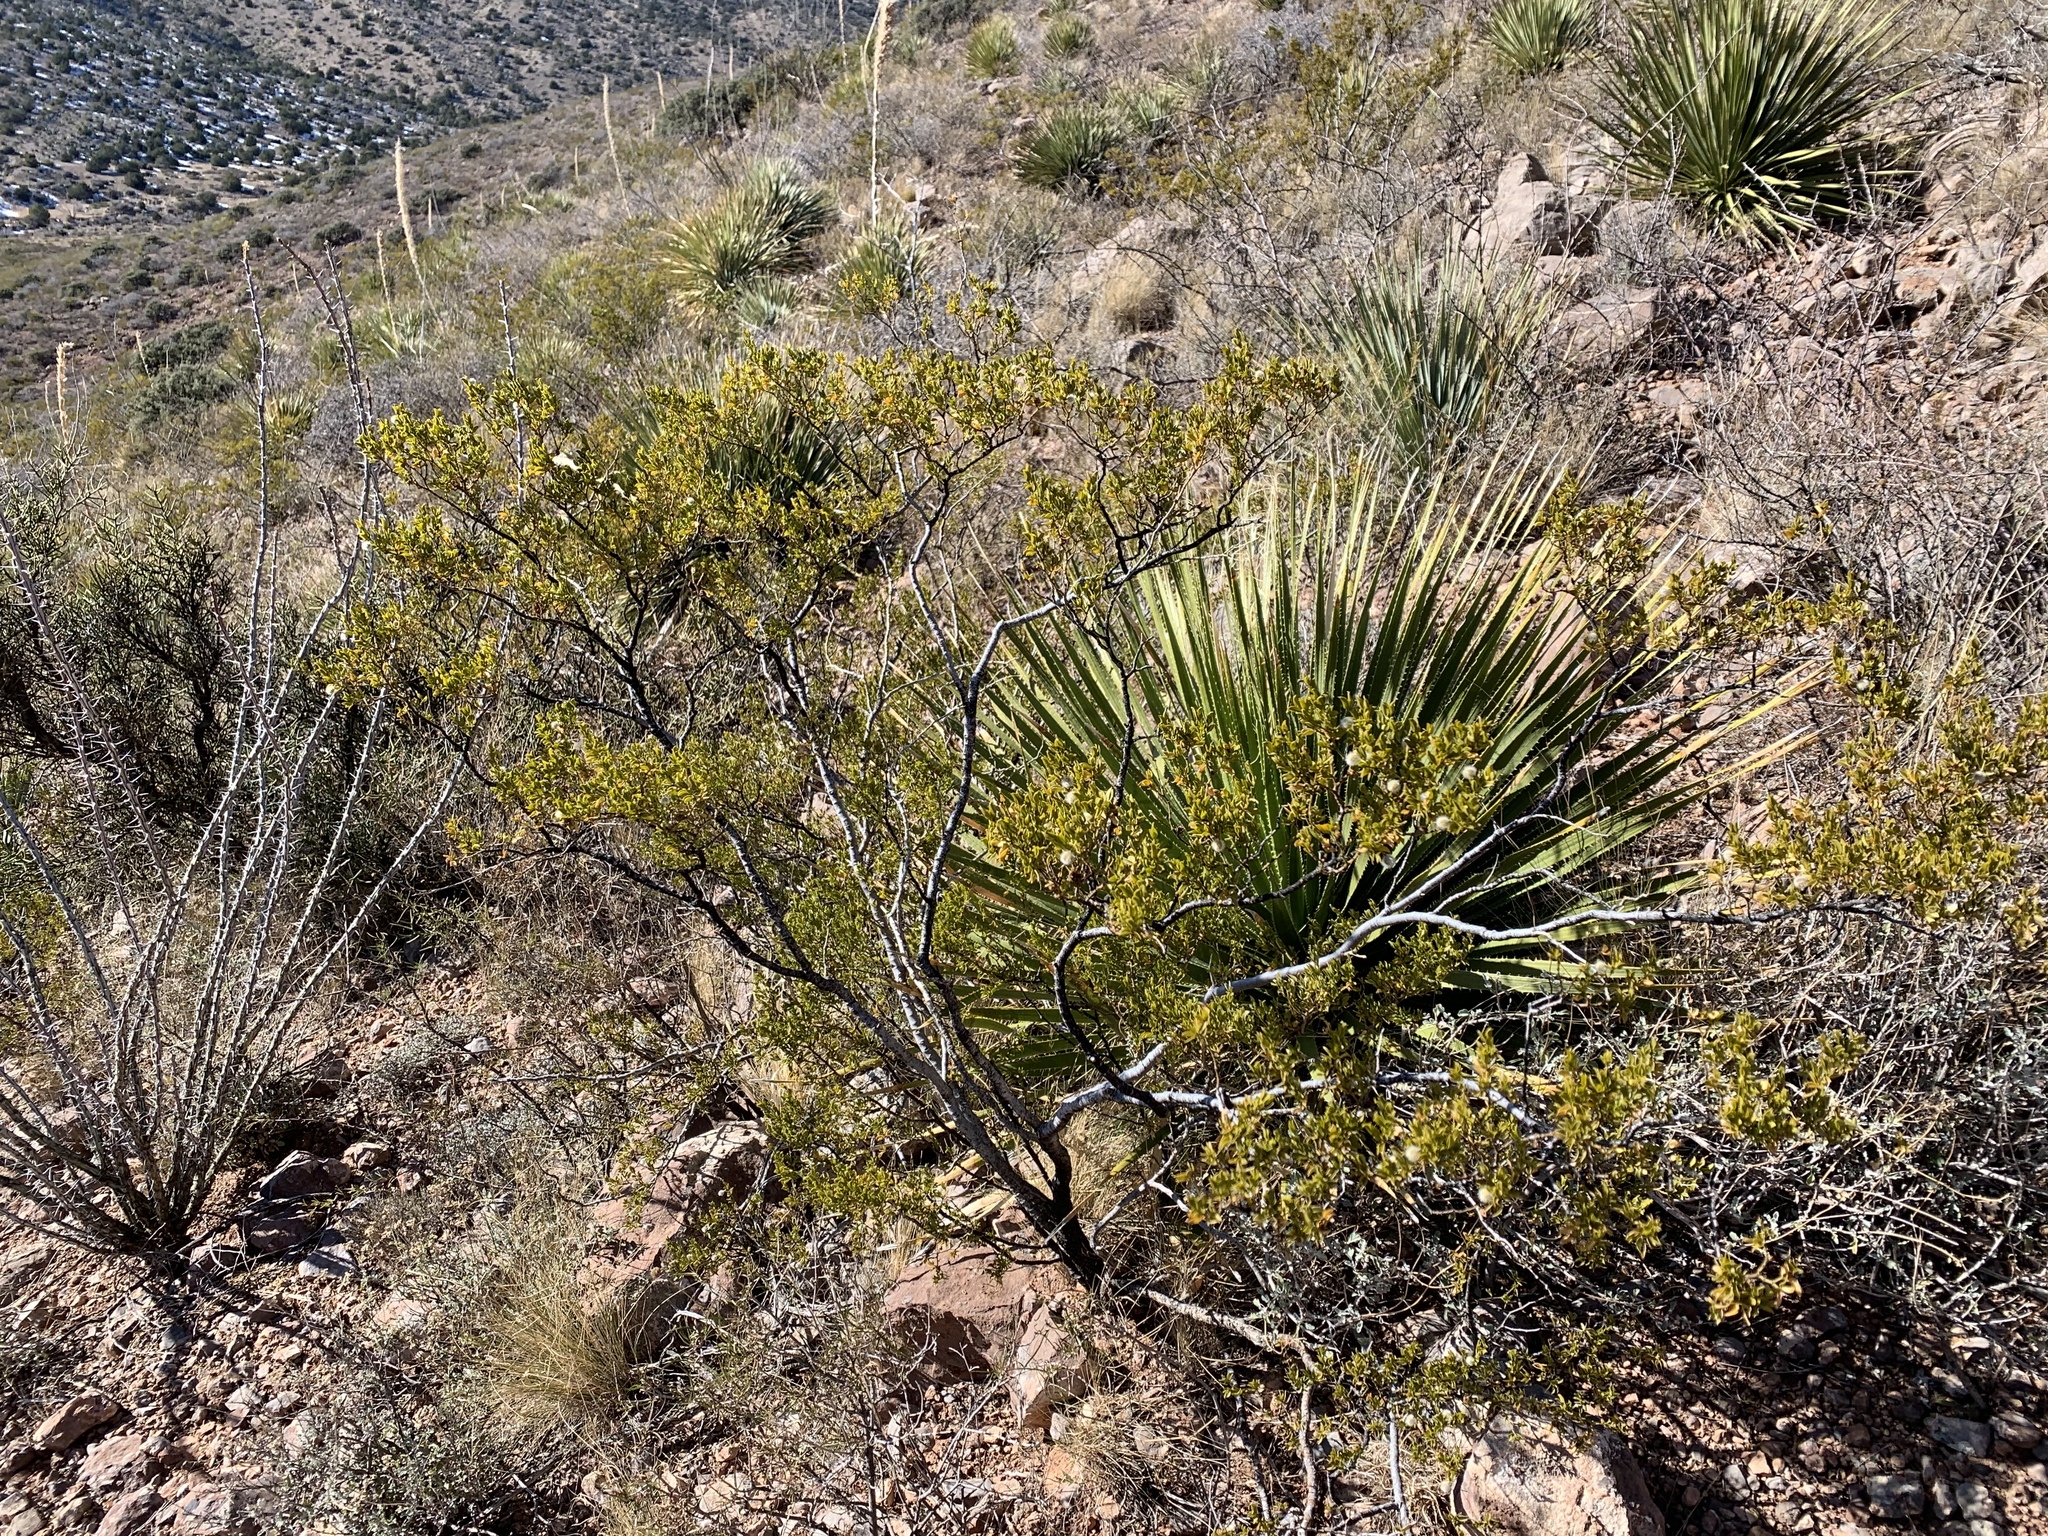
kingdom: Plantae
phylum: Tracheophyta
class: Magnoliopsida
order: Zygophyllales
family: Zygophyllaceae
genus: Larrea
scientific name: Larrea tridentata
